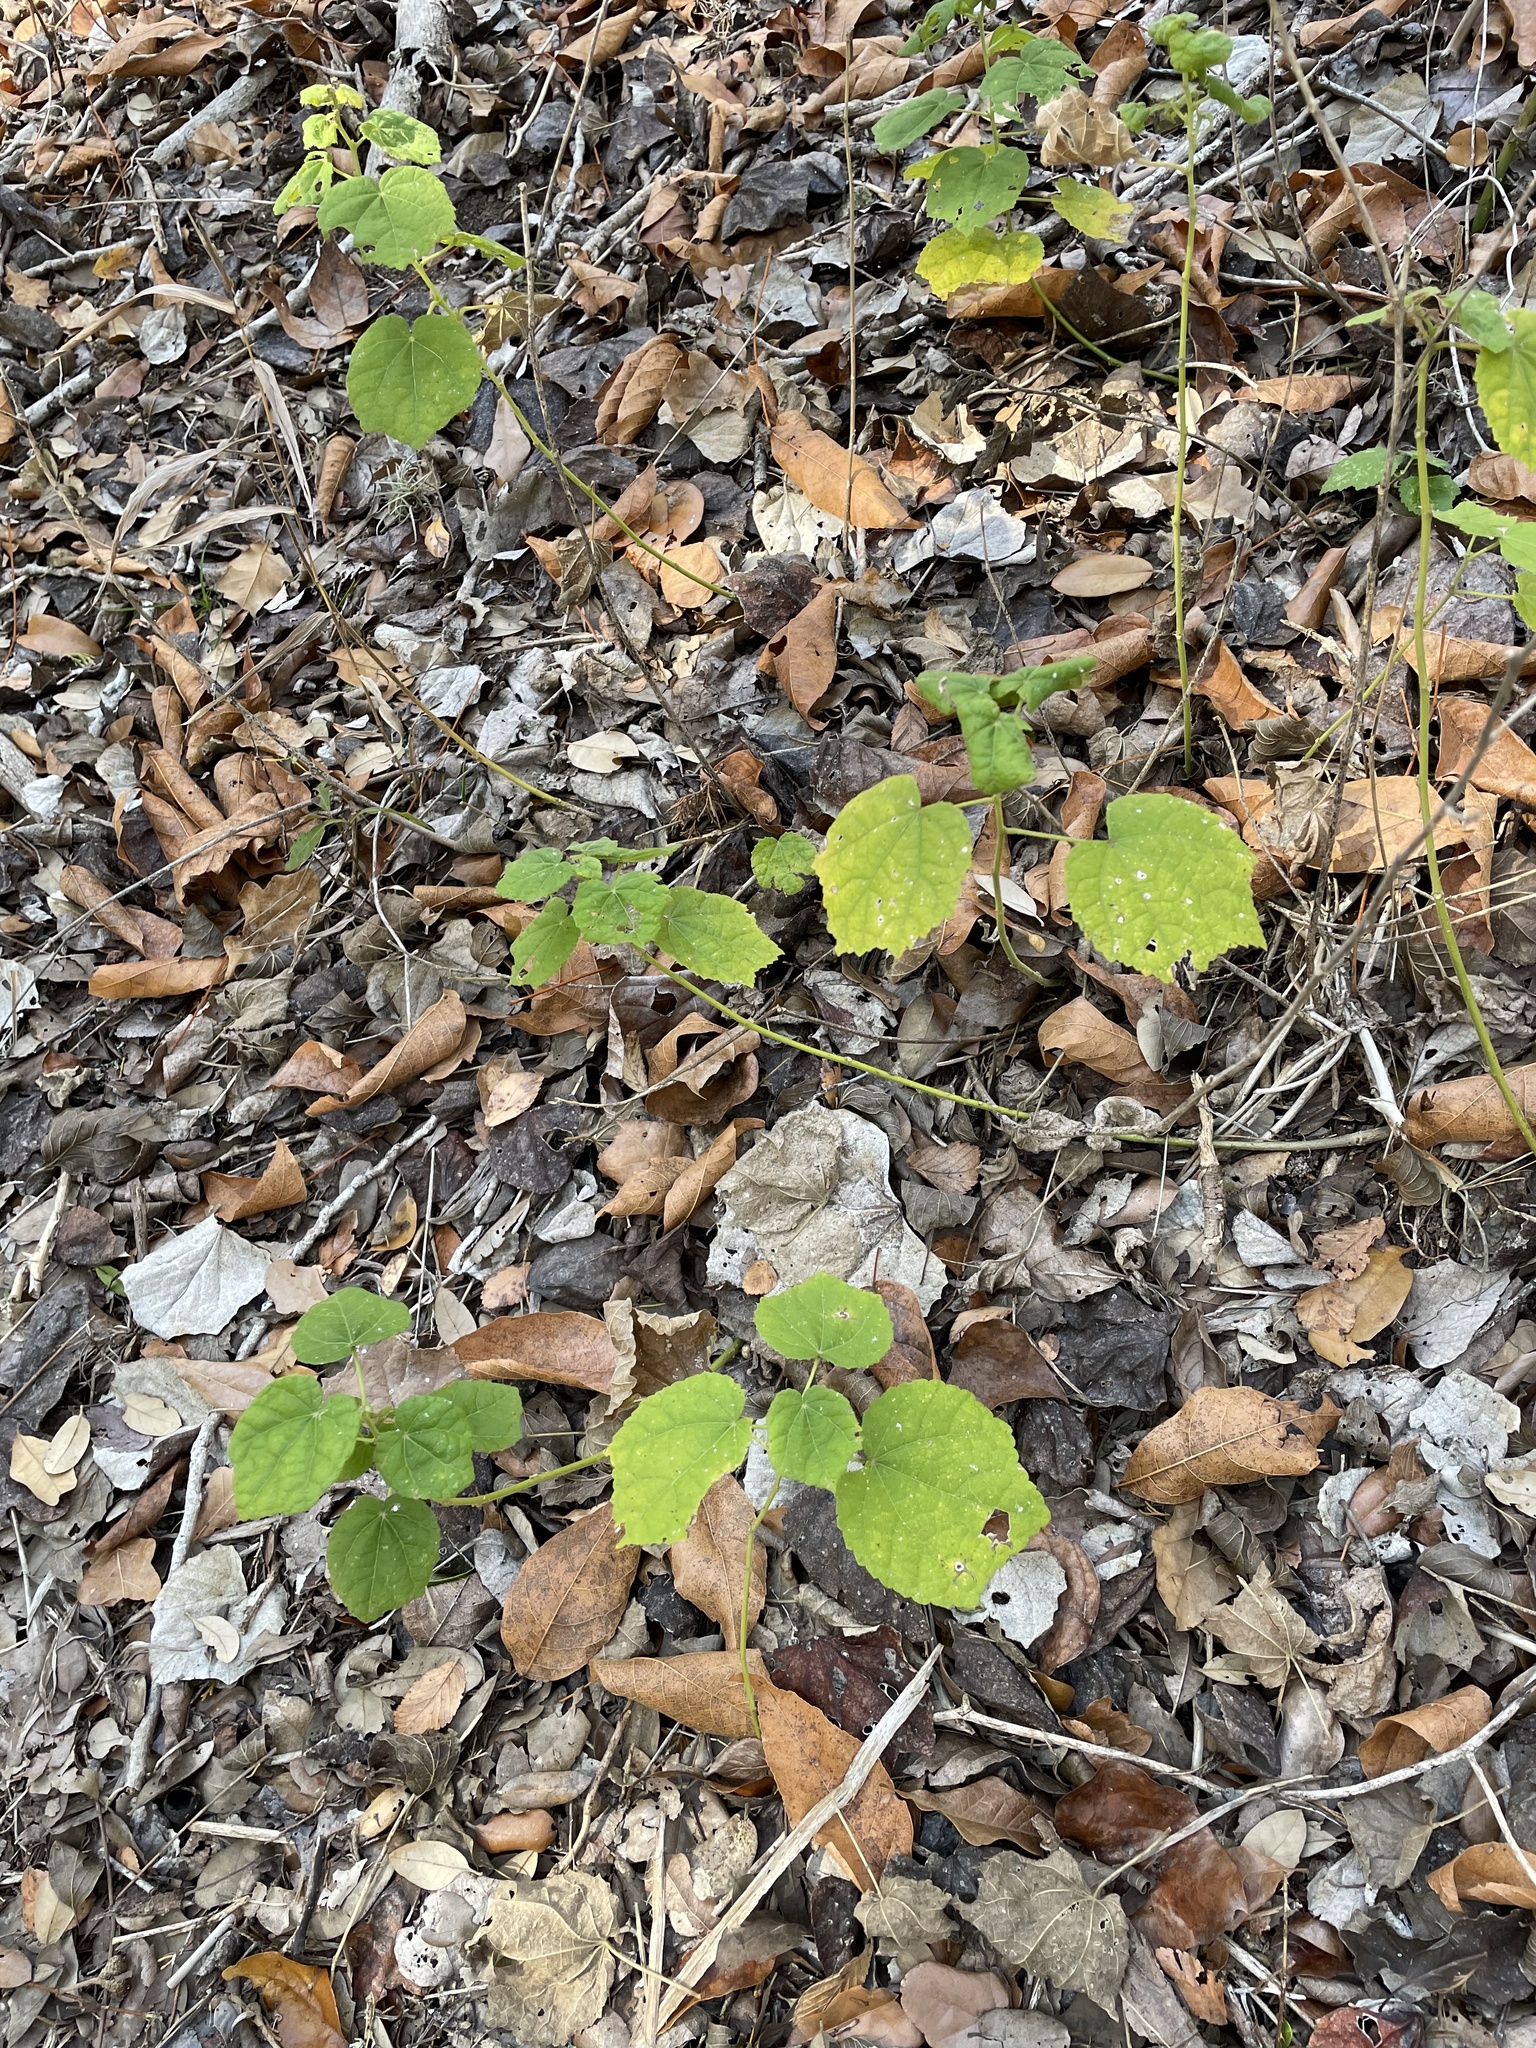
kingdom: Plantae
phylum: Tracheophyta
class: Magnoliopsida
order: Malvales
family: Malvaceae
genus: Malvaviscus
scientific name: Malvaviscus arboreus
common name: Wax mallow
